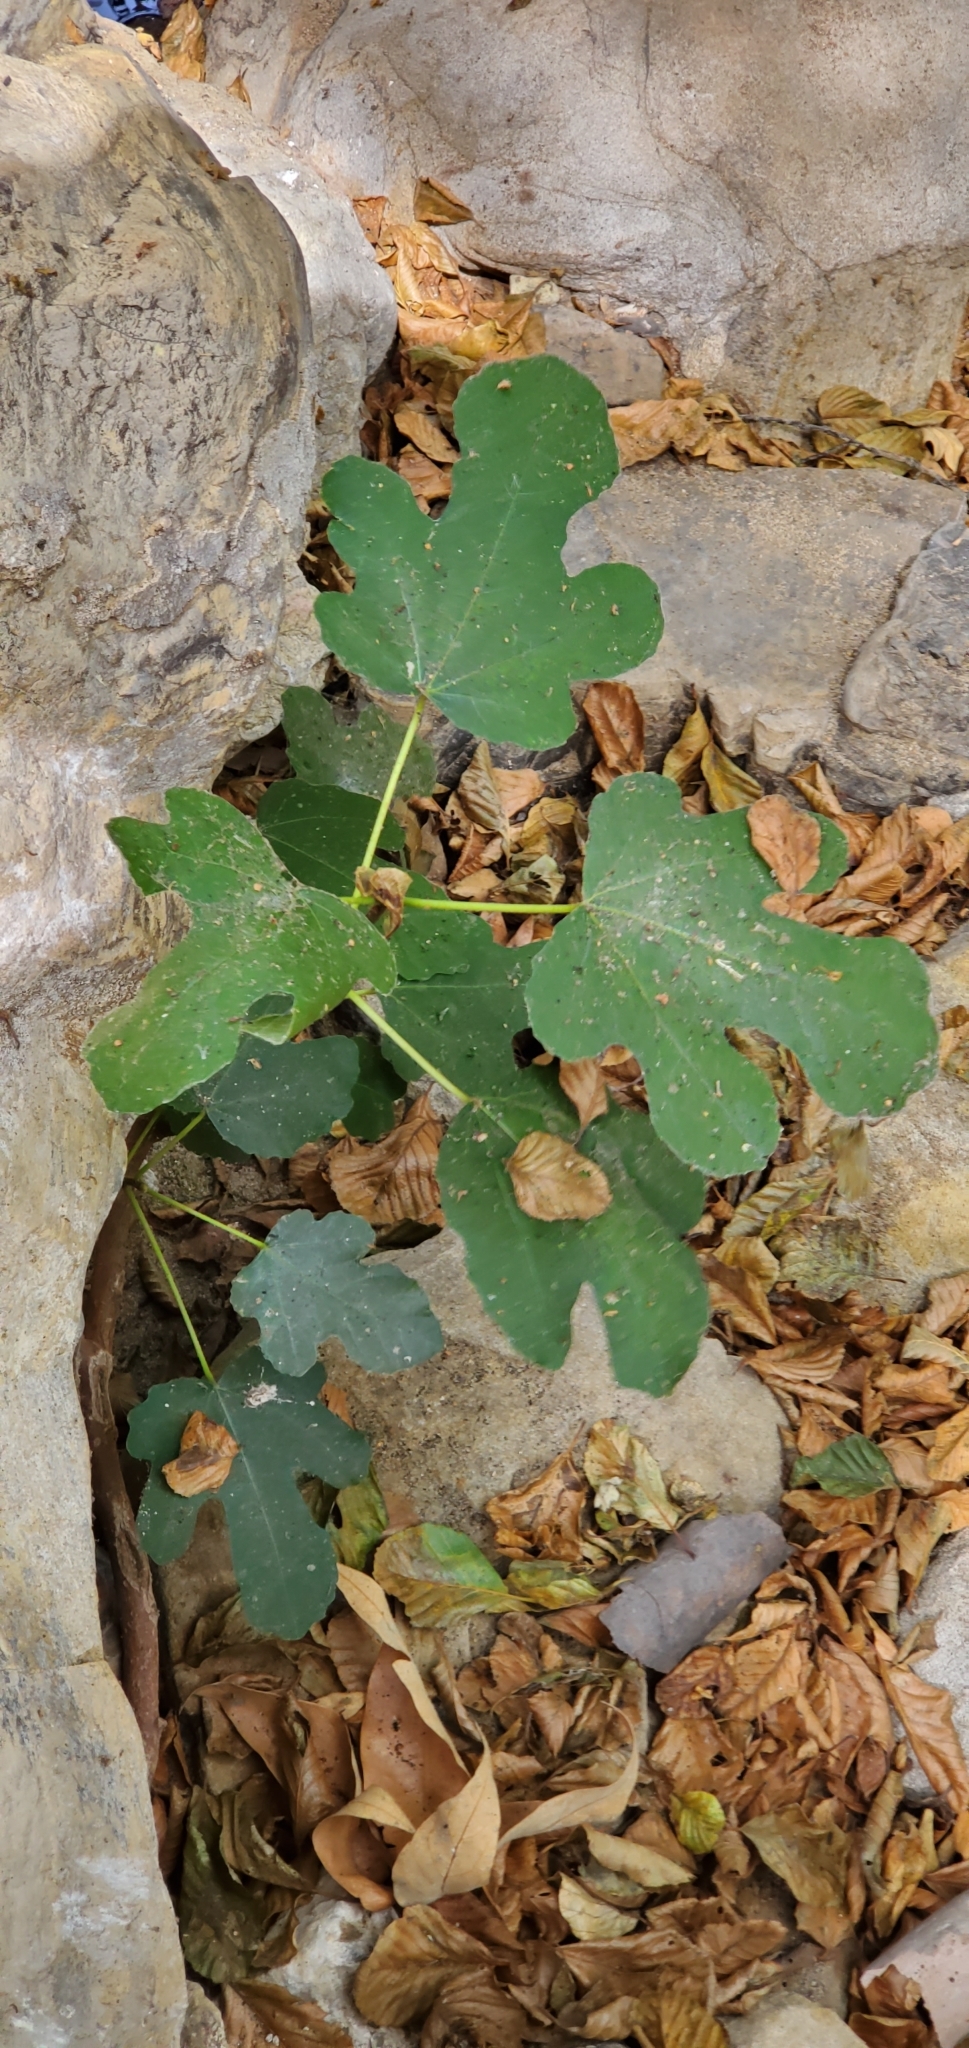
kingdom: Plantae
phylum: Tracheophyta
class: Magnoliopsida
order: Rosales
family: Moraceae
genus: Ficus
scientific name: Ficus carica
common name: Fig
